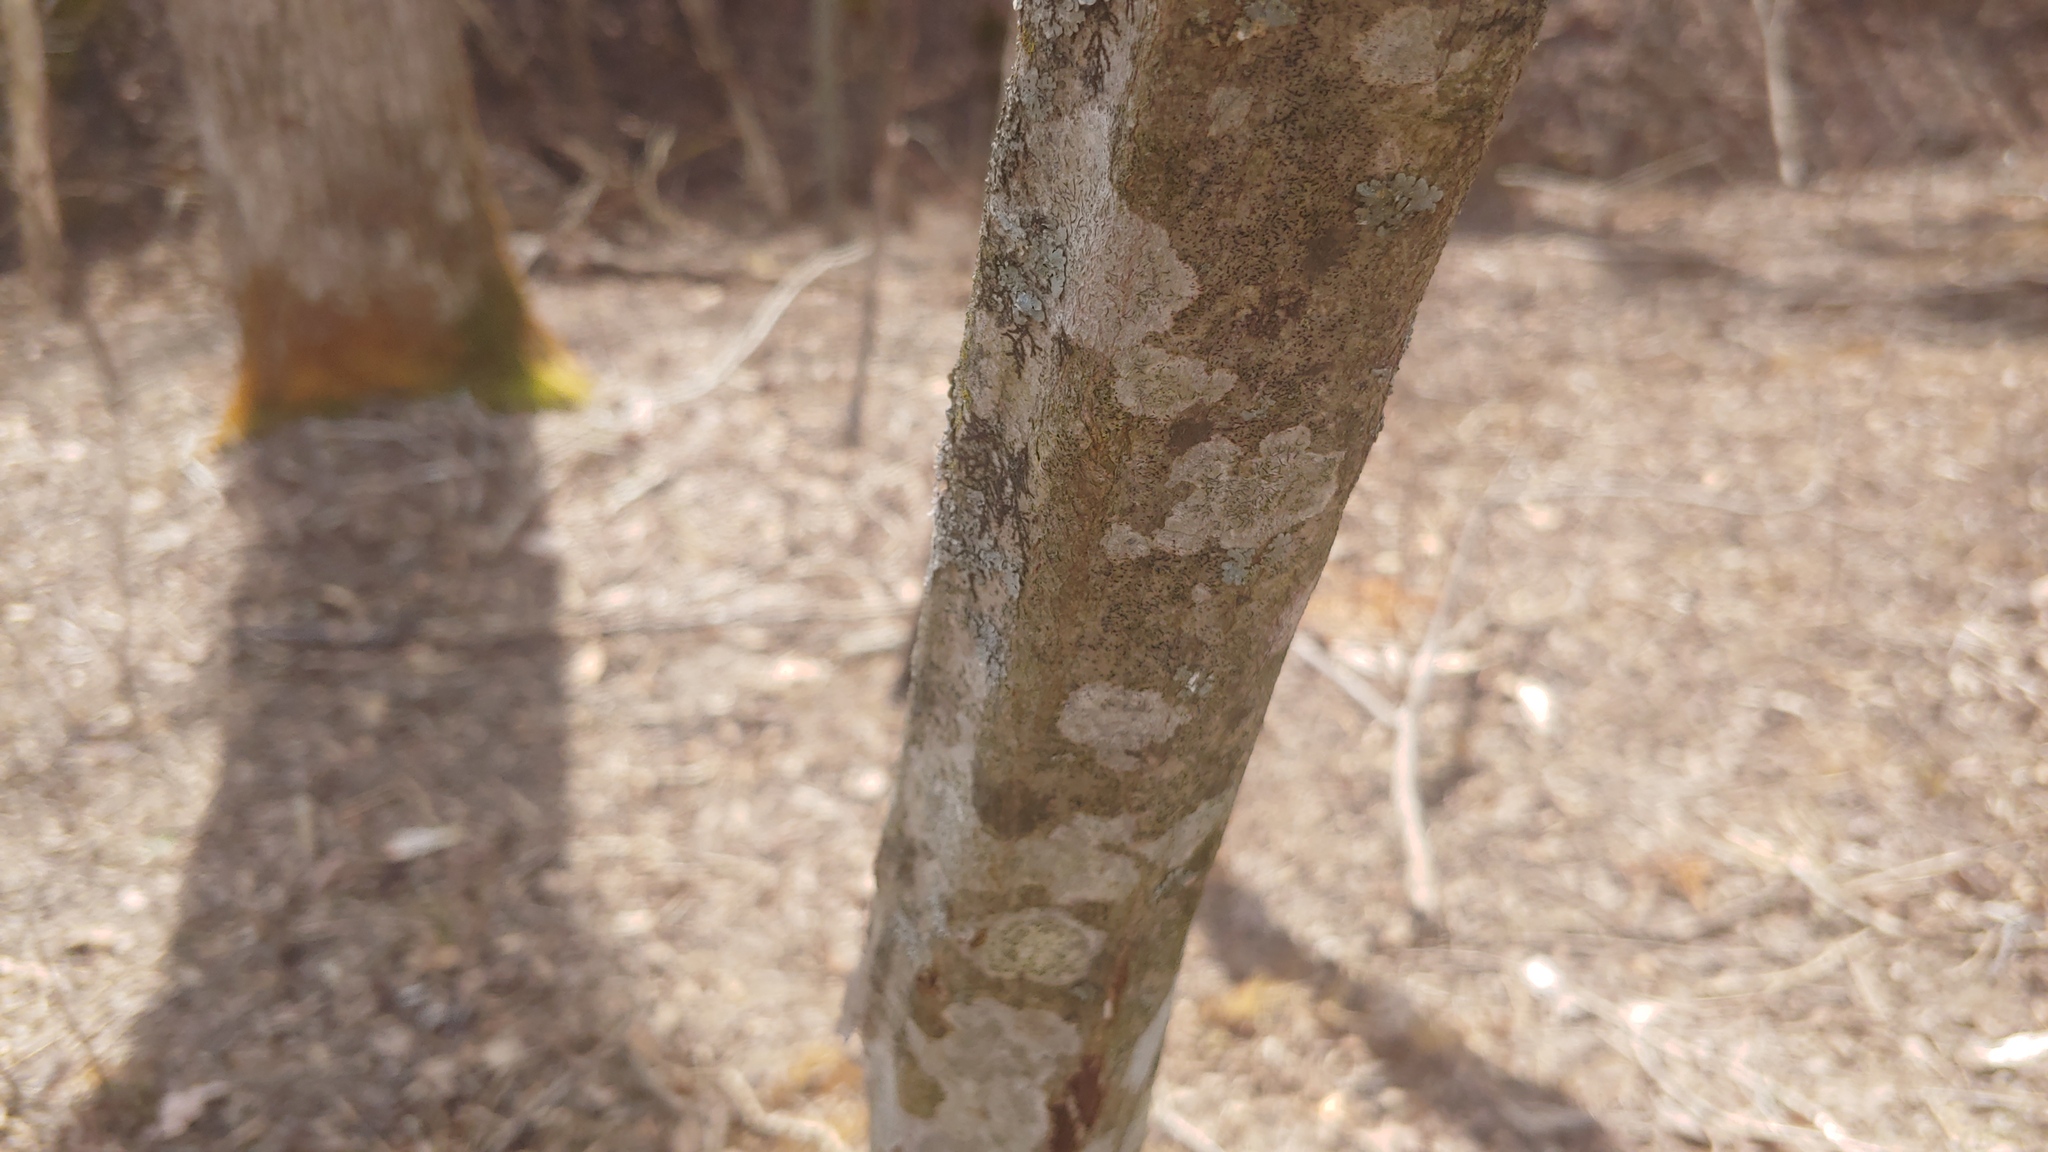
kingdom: Plantae
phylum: Tracheophyta
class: Magnoliopsida
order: Fagales
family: Betulaceae
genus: Carpinus
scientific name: Carpinus caroliniana
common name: American hornbeam
